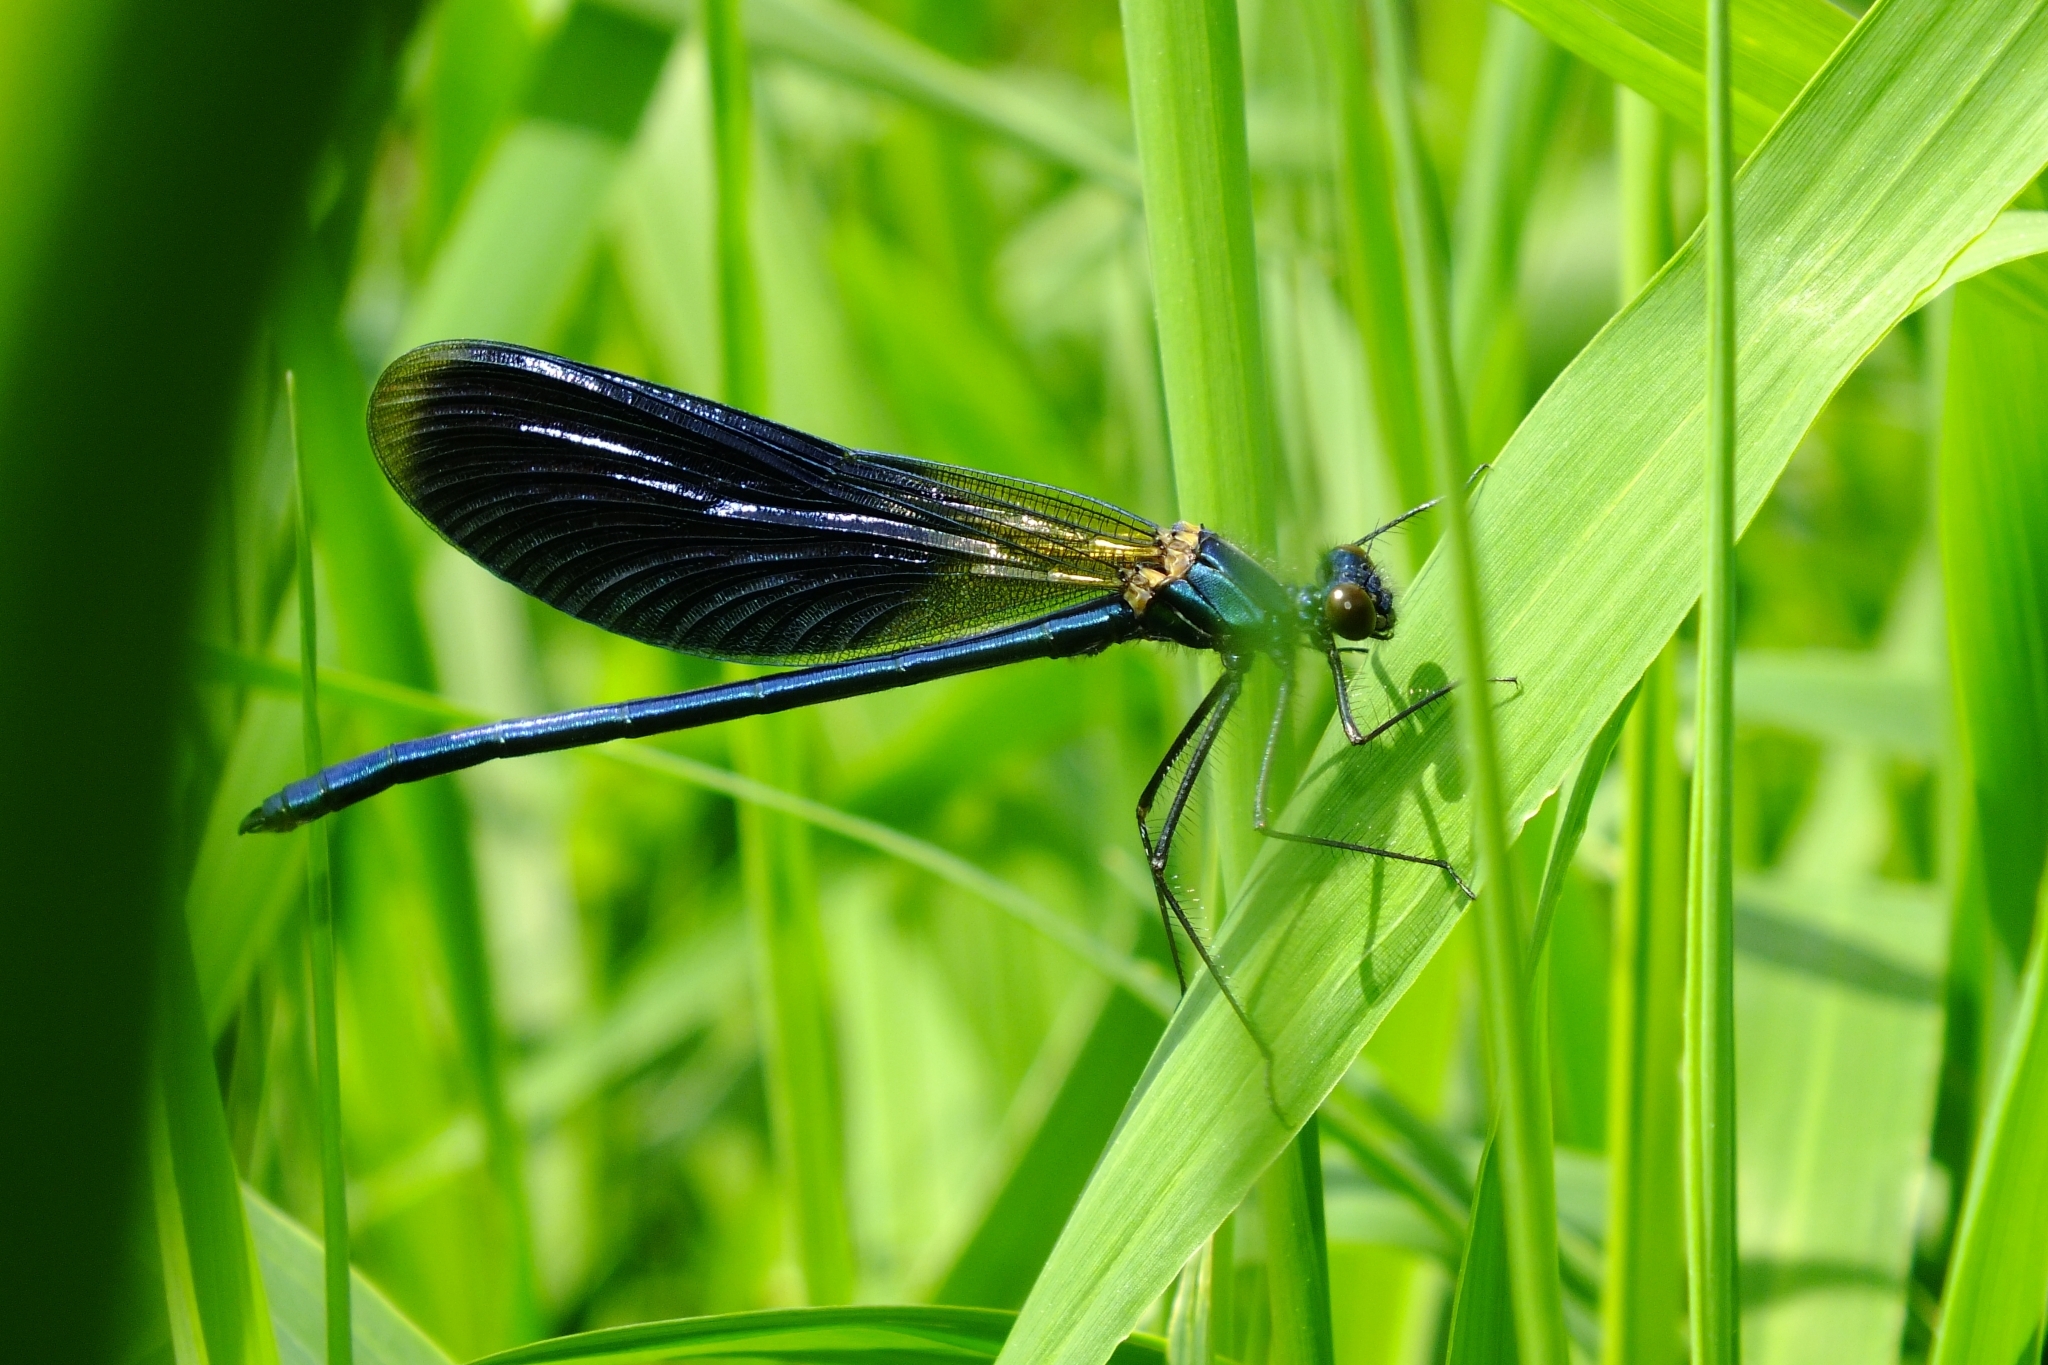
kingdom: Animalia
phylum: Arthropoda
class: Insecta
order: Odonata
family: Calopterygidae
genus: Calopteryx
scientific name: Calopteryx splendens
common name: Banded demoiselle
